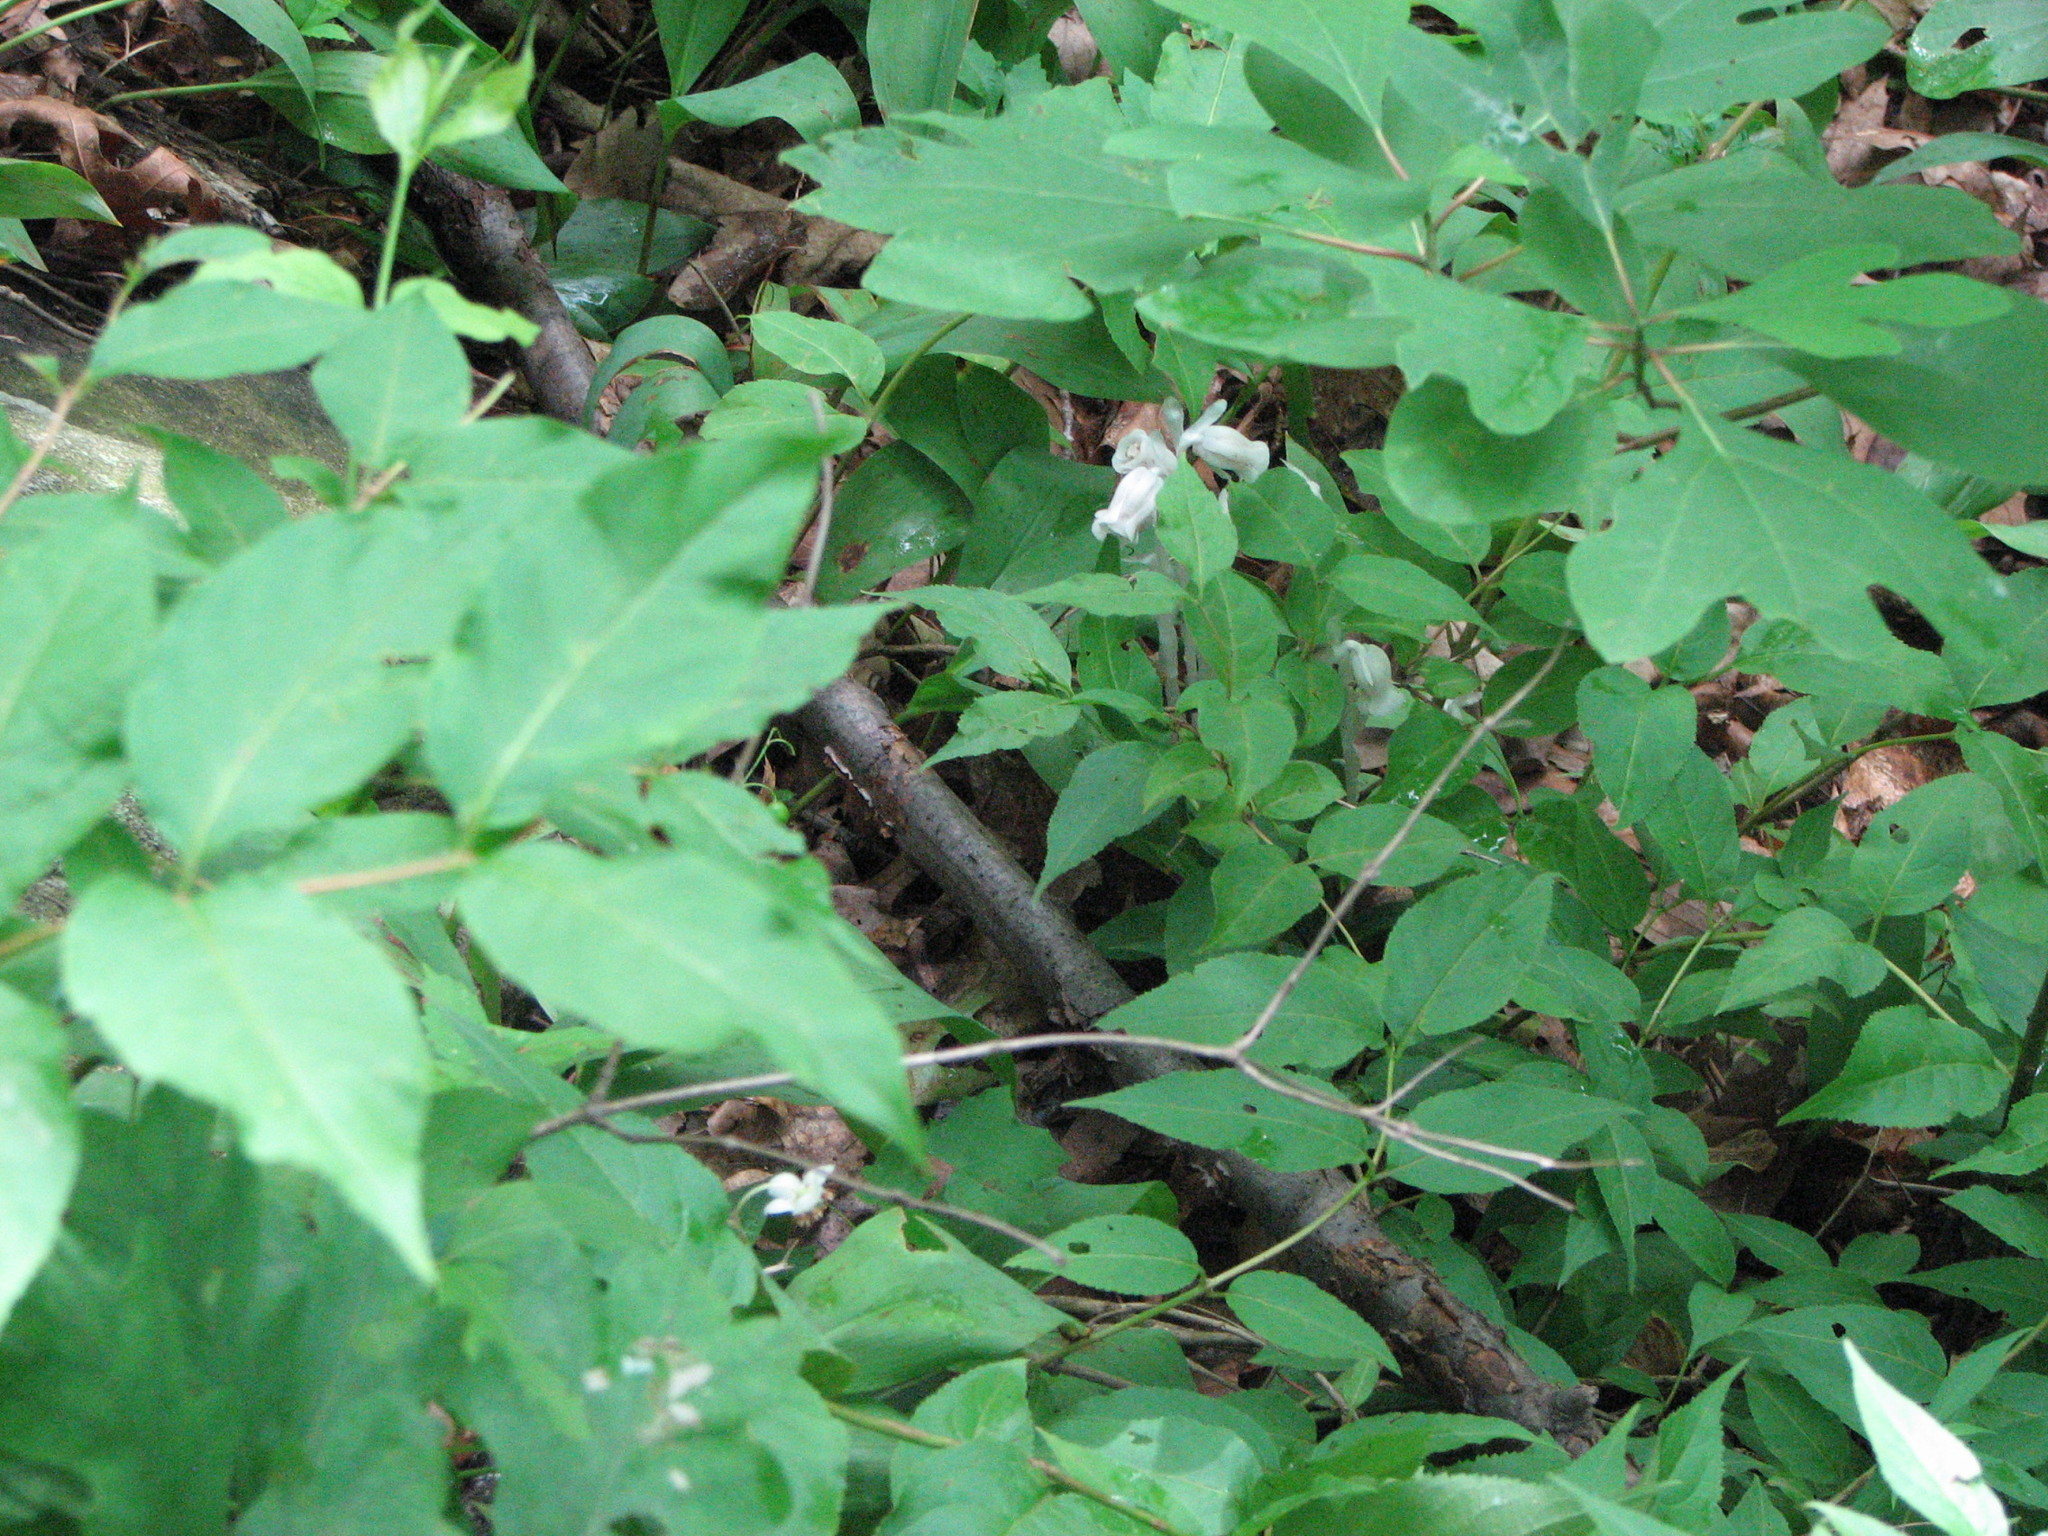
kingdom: Plantae
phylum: Tracheophyta
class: Magnoliopsida
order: Ericales
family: Ericaceae
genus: Monotropa
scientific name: Monotropa uniflora
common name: Convulsion root
